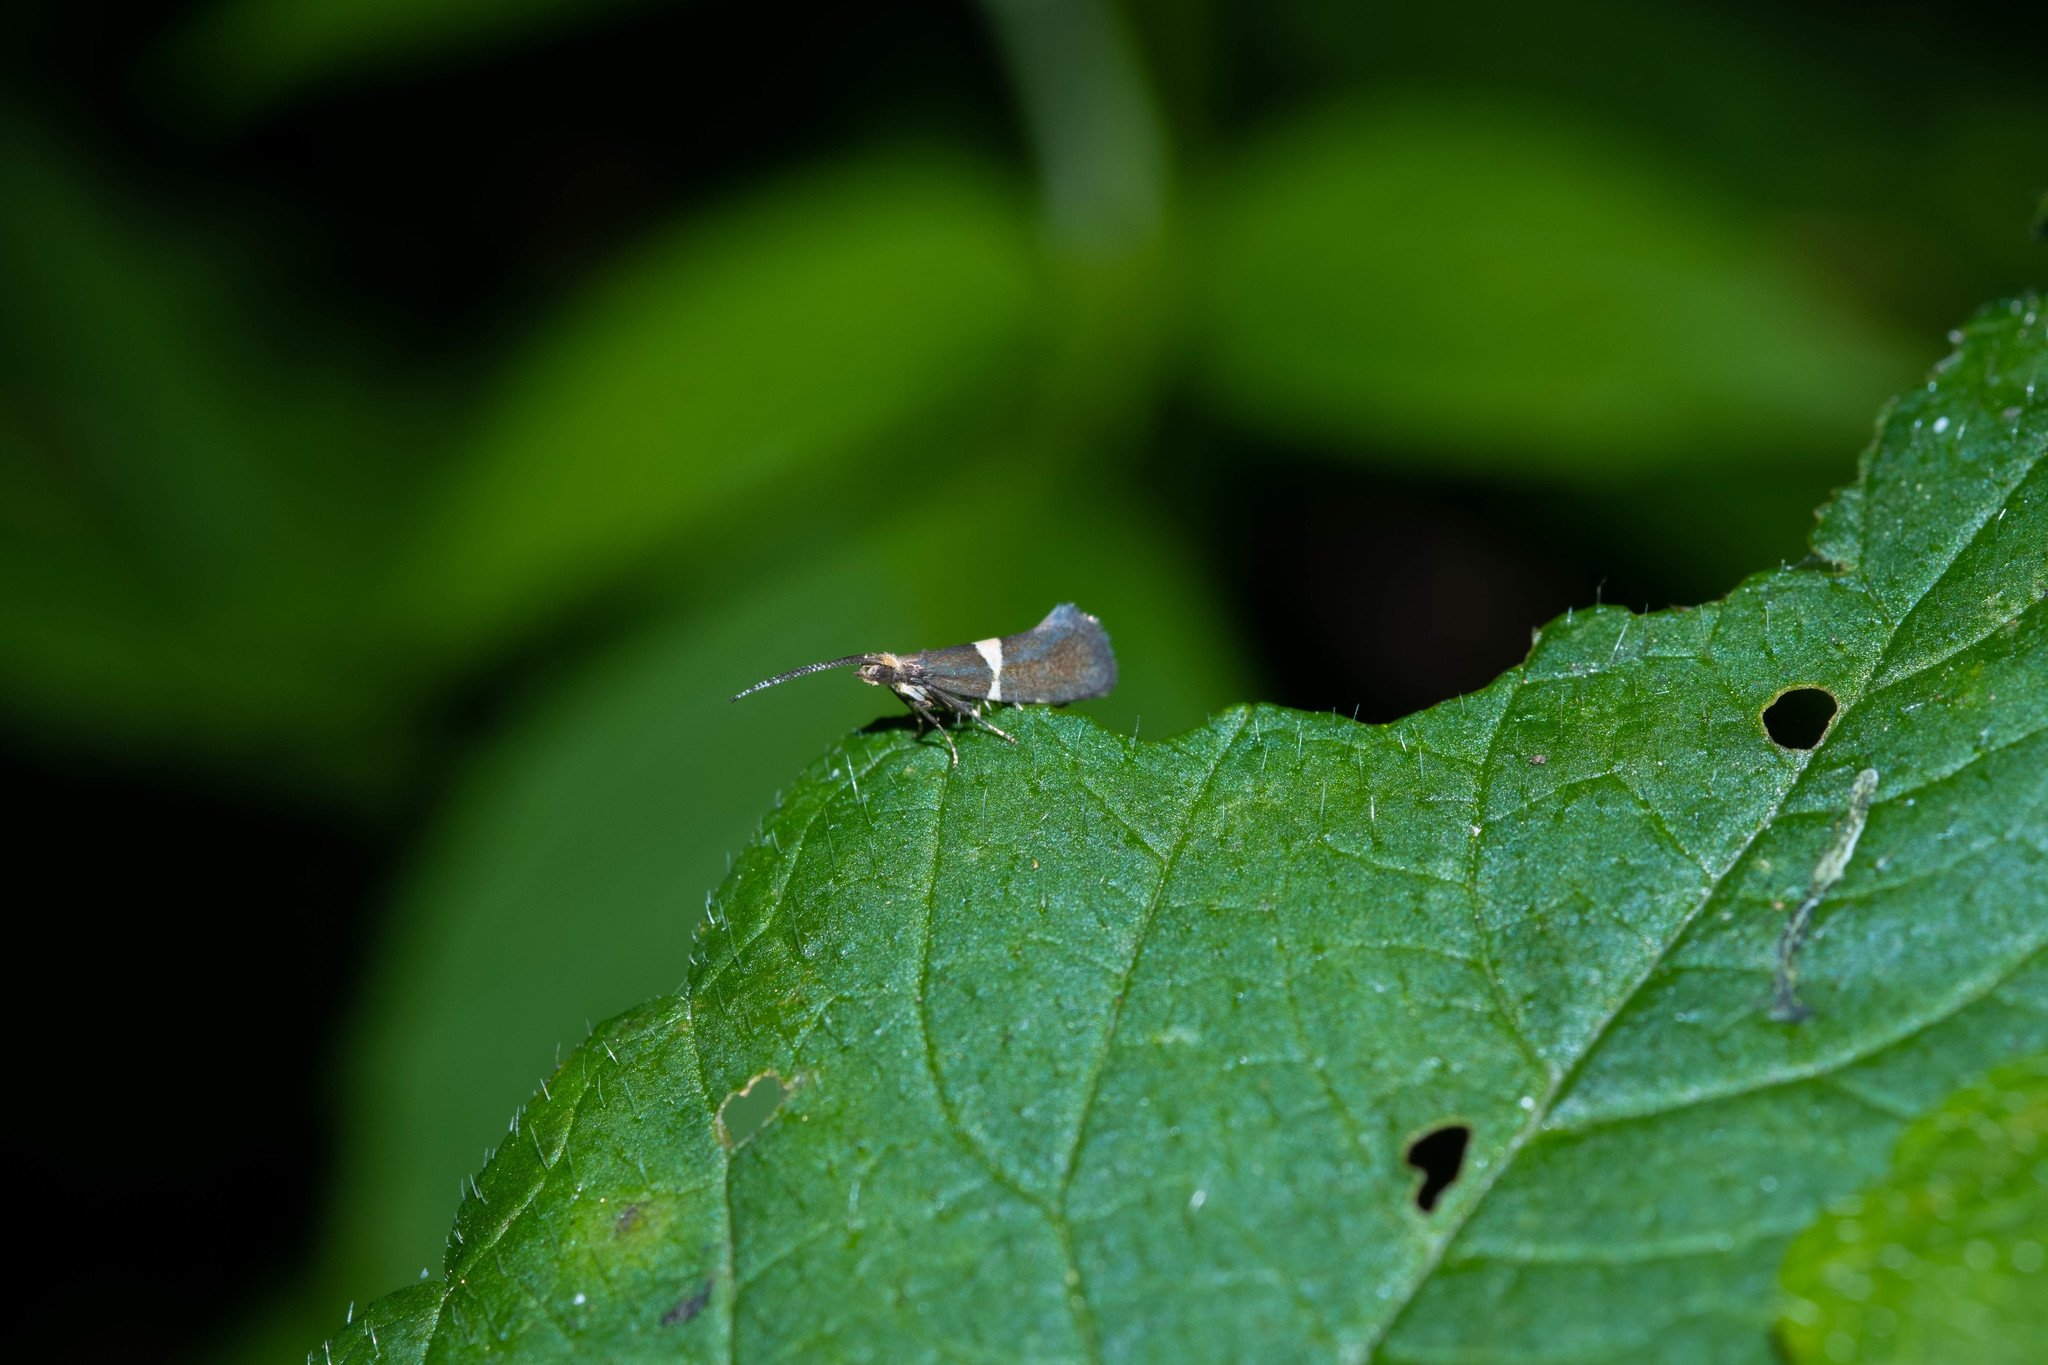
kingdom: Animalia
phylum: Arthropoda
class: Insecta
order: Lepidoptera
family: Plutellidae
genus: Eidophasia
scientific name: Eidophasia messingiella
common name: Bitter-cress smudge
